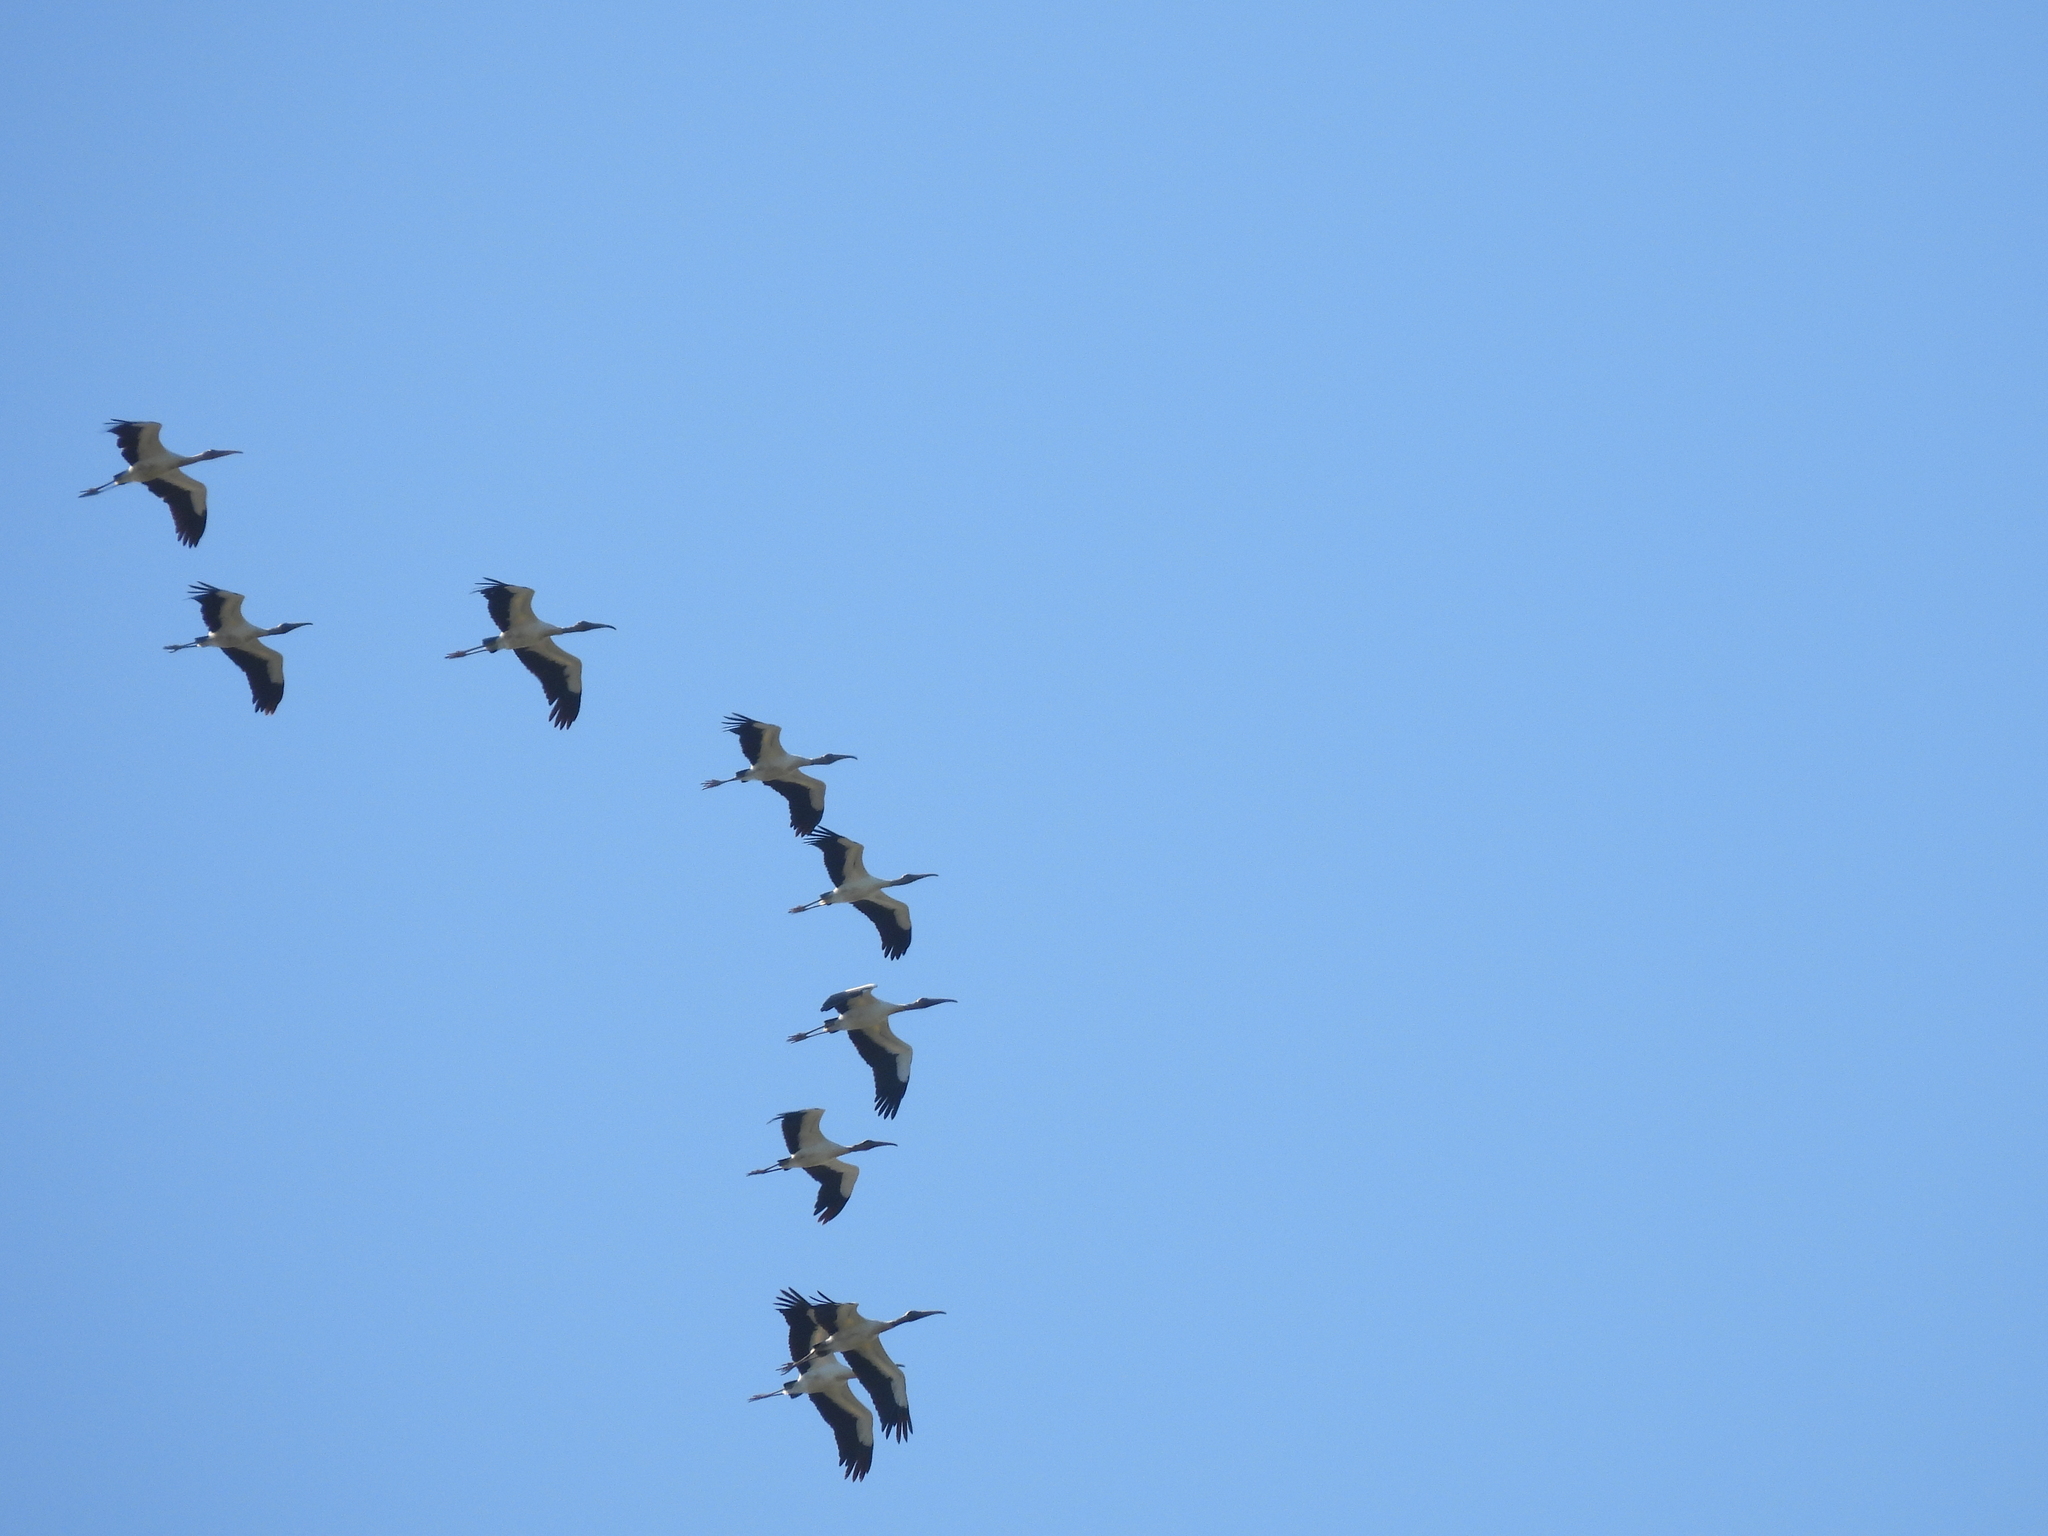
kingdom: Animalia
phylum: Chordata
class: Aves
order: Ciconiiformes
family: Ciconiidae
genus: Mycteria
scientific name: Mycteria americana
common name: Wood stork
